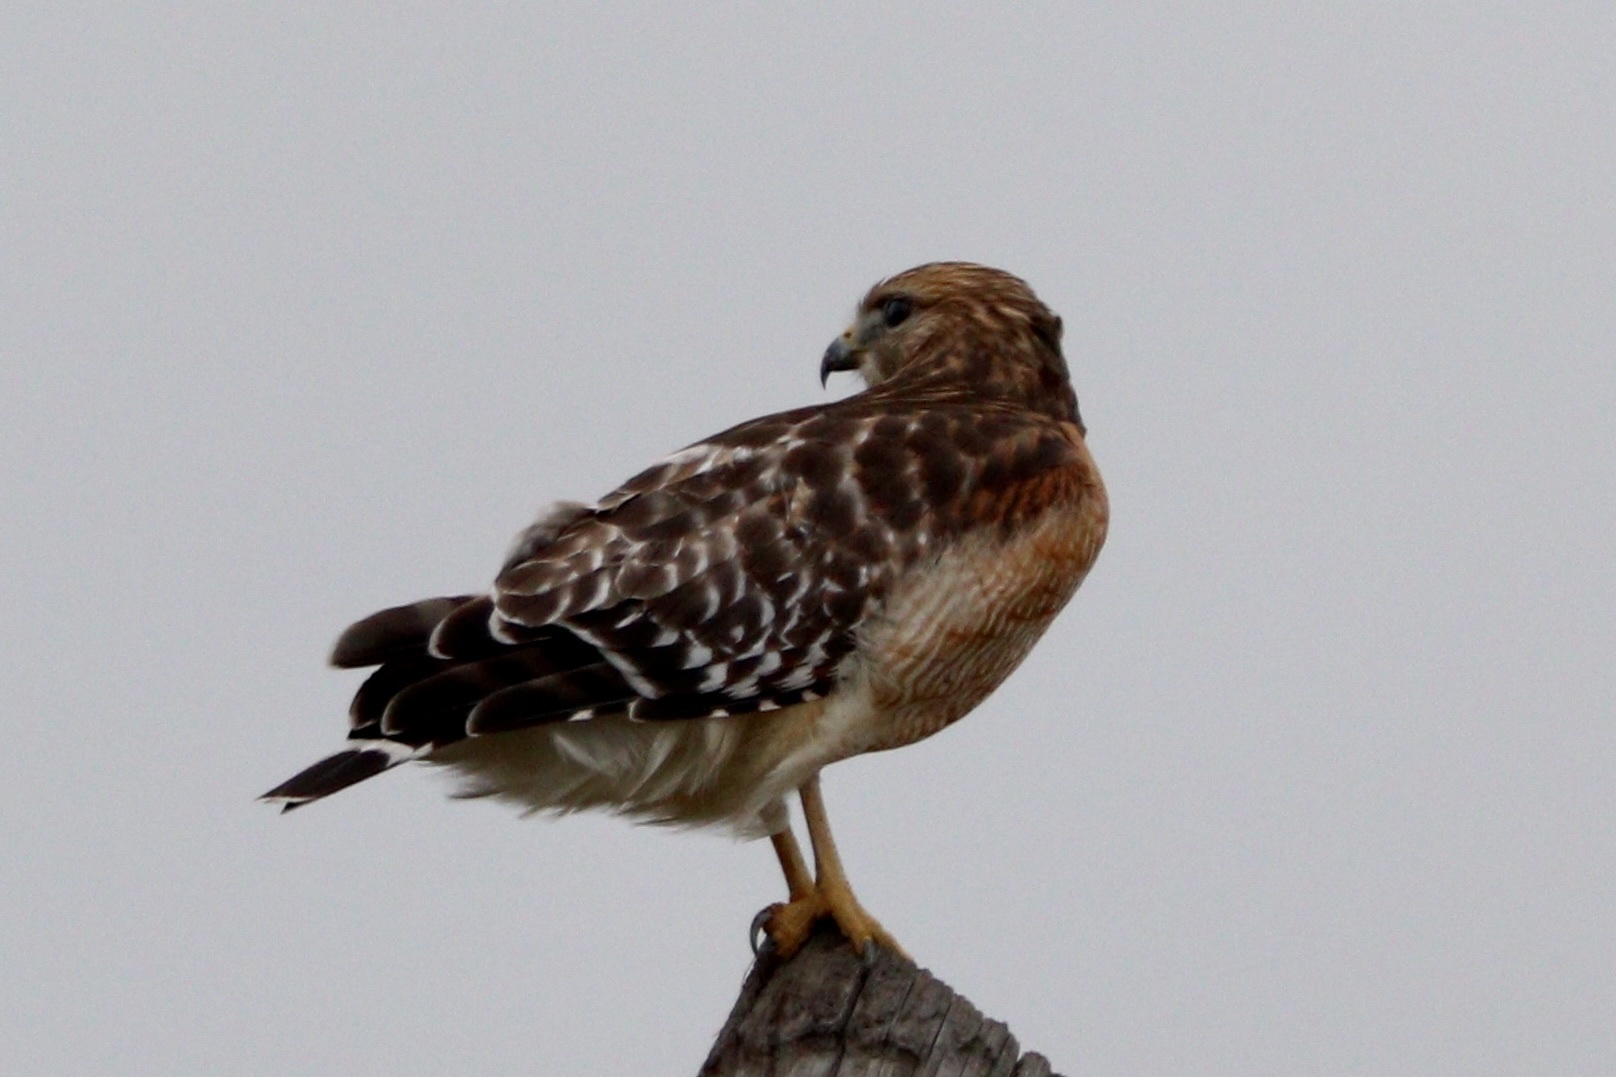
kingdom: Animalia
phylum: Chordata
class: Aves
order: Accipitriformes
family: Accipitridae
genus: Buteo
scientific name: Buteo lineatus
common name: Red-shouldered hawk
